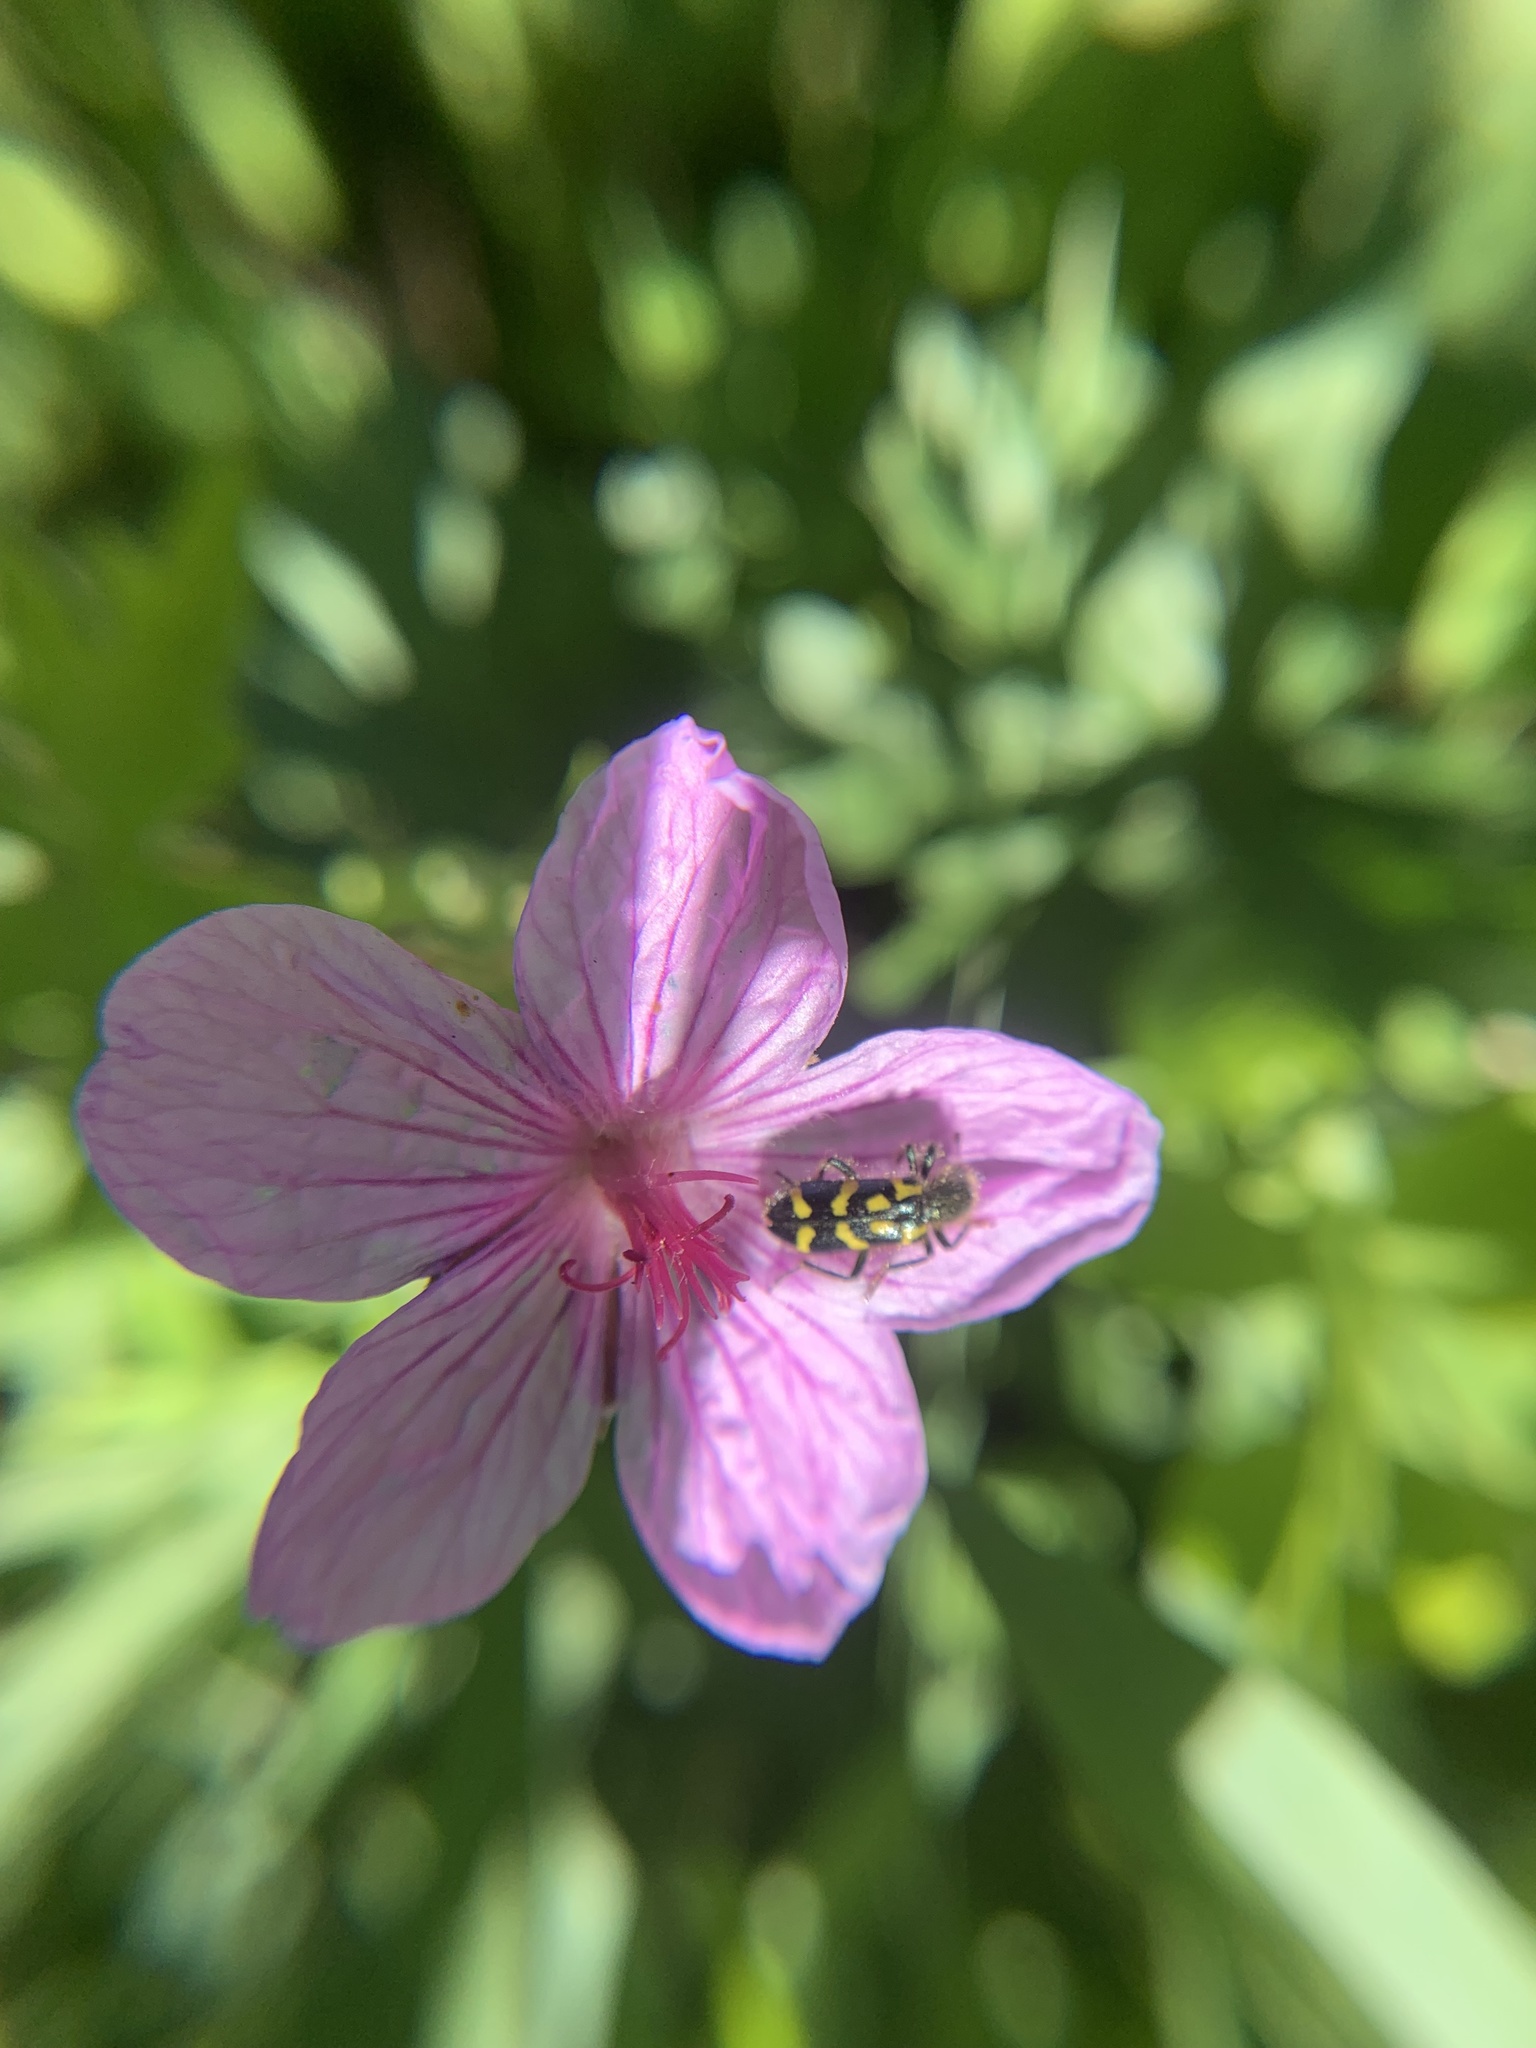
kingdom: Animalia
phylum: Arthropoda
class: Insecta
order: Coleoptera
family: Cleridae
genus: Trichodes
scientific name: Trichodes ornatus
